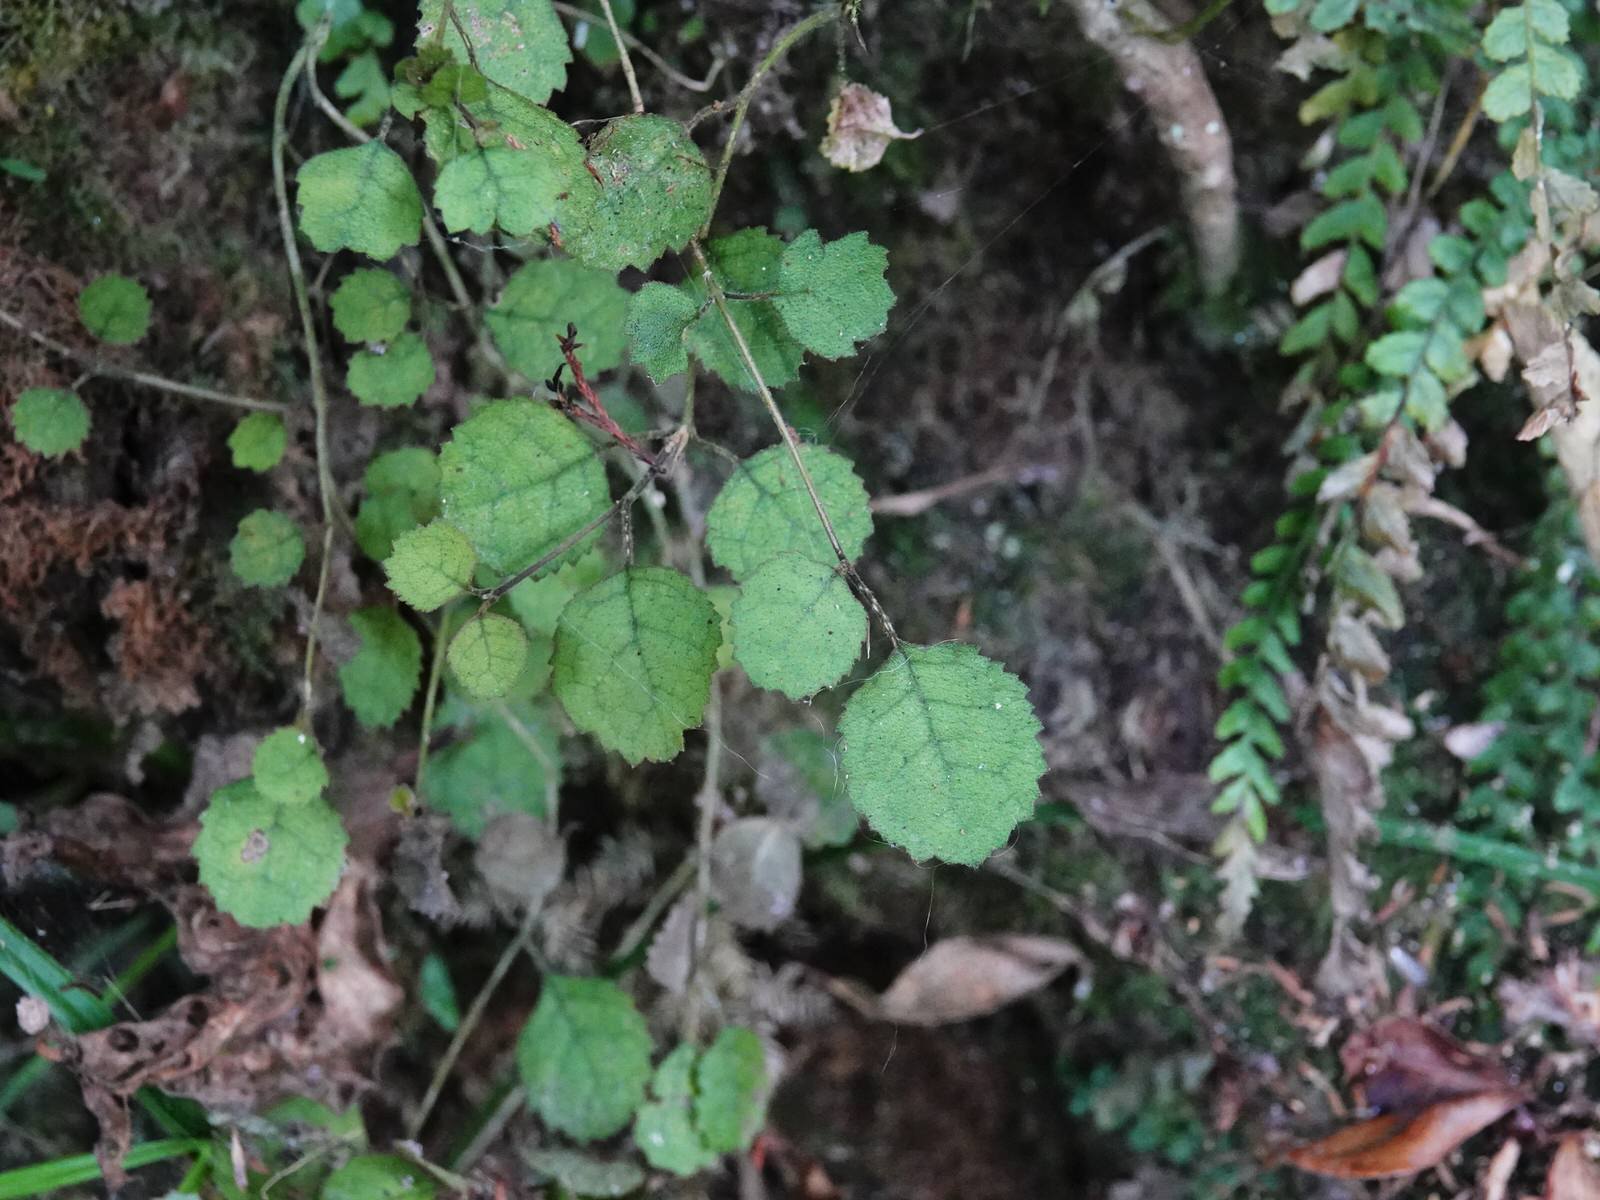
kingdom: Plantae
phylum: Tracheophyta
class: Magnoliopsida
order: Lamiales
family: Gesneriaceae
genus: Rhabdothamnus
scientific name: Rhabdothamnus solandri
